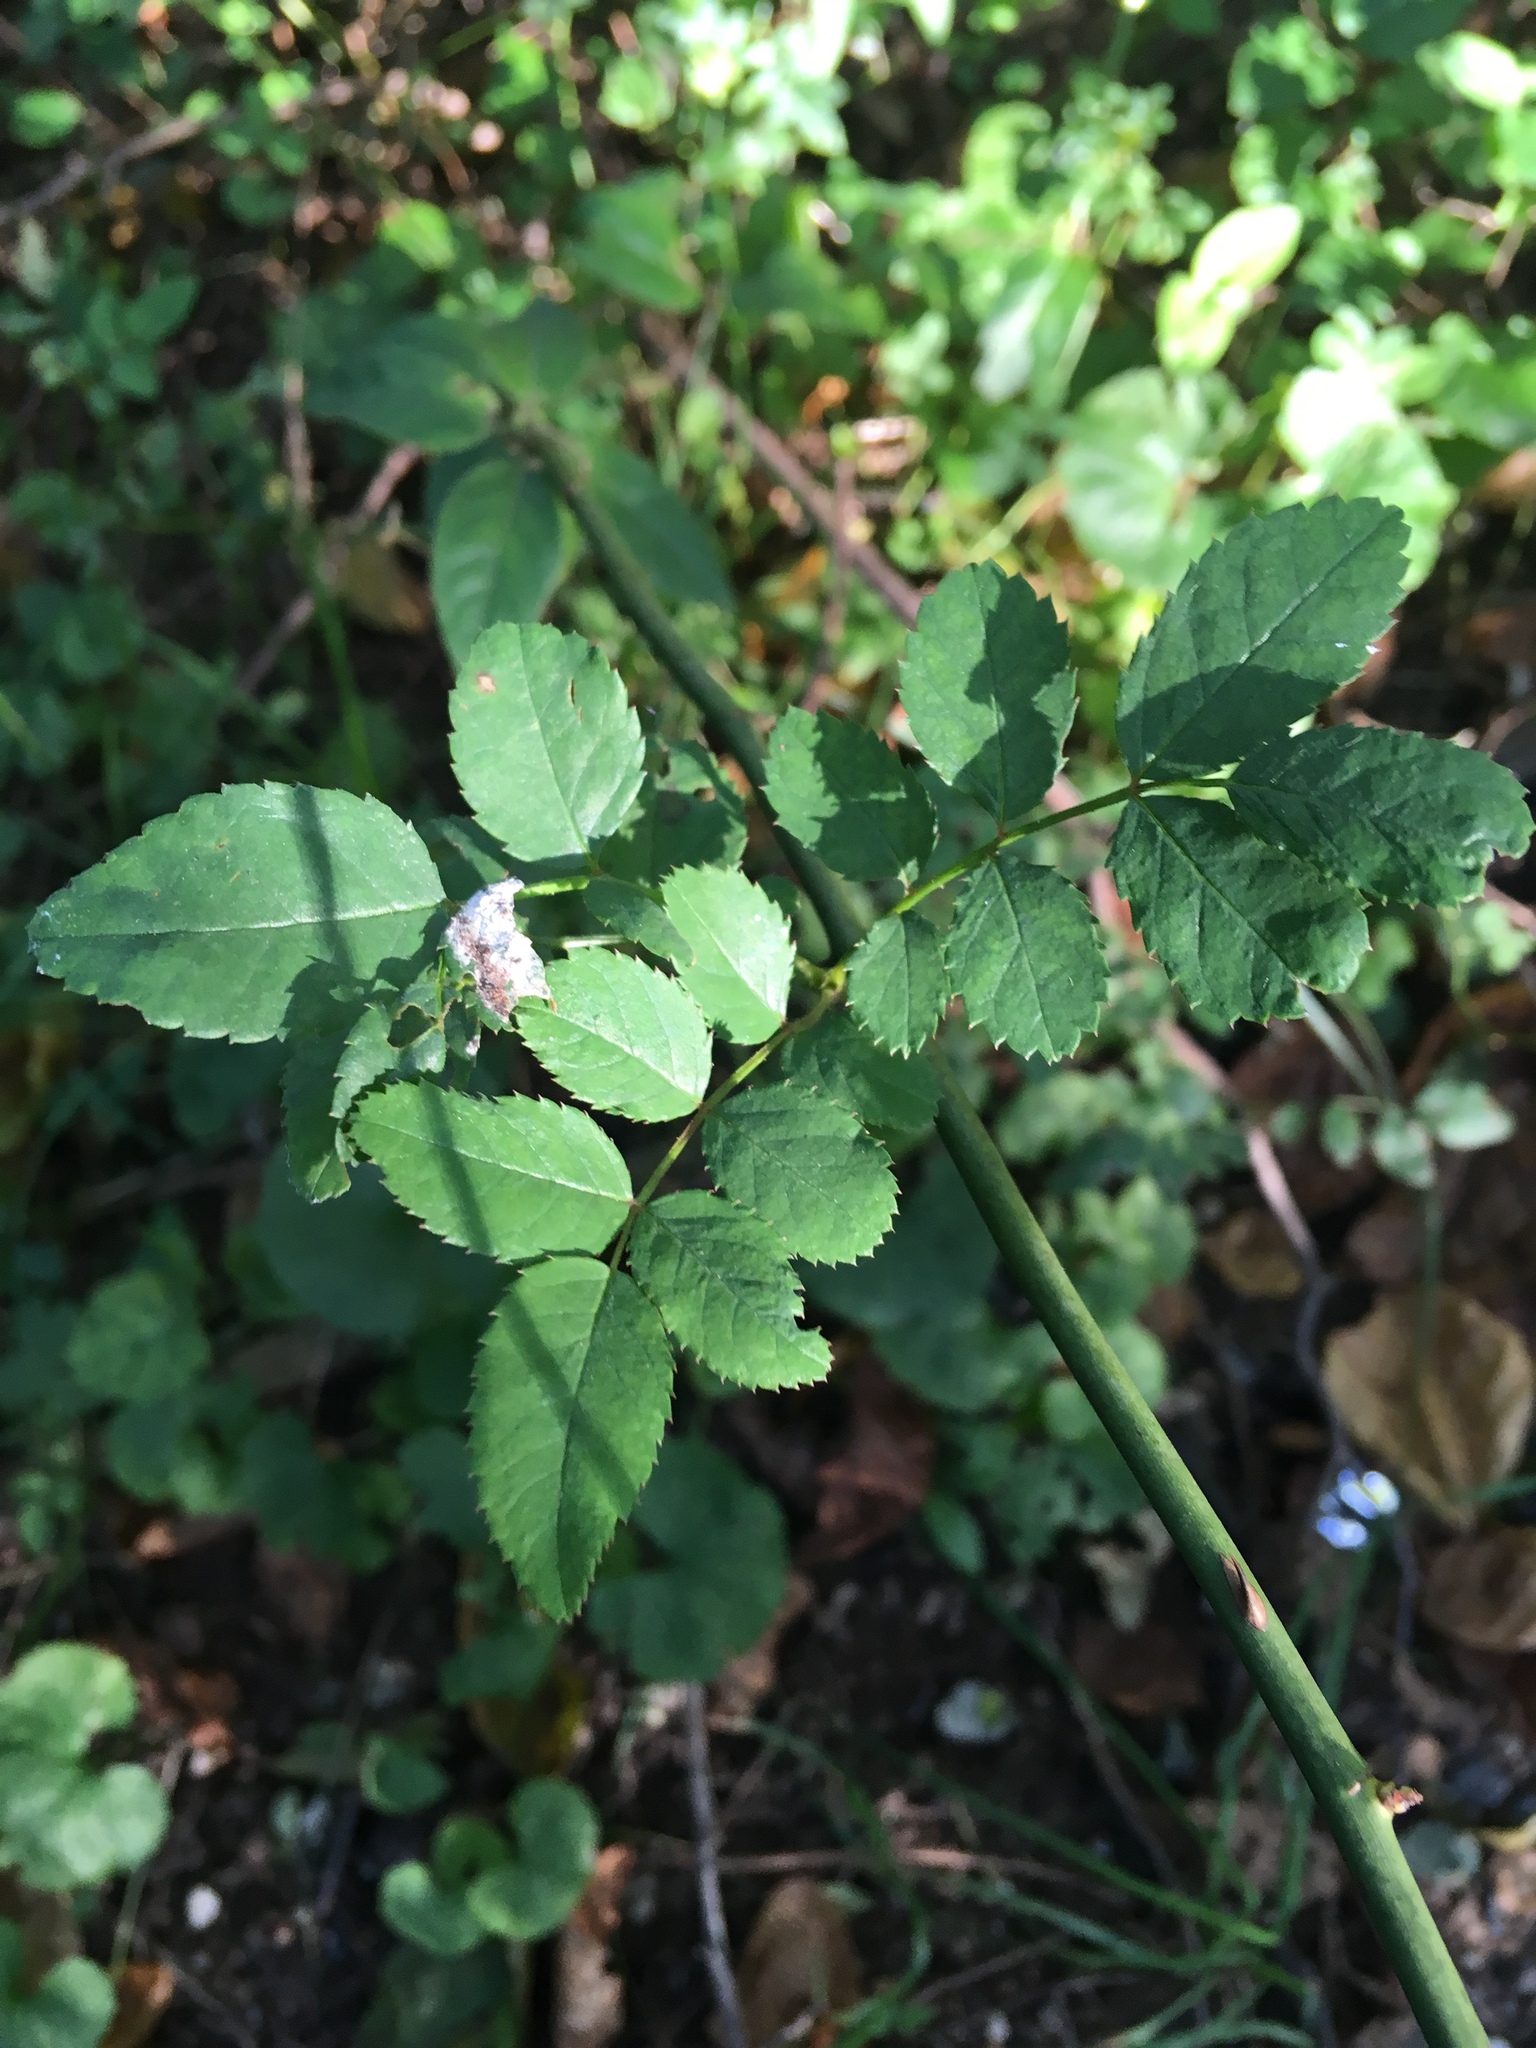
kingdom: Plantae
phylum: Tracheophyta
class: Magnoliopsida
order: Rosales
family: Rosaceae
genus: Rosa
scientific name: Rosa multiflora
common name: Multiflora rose
